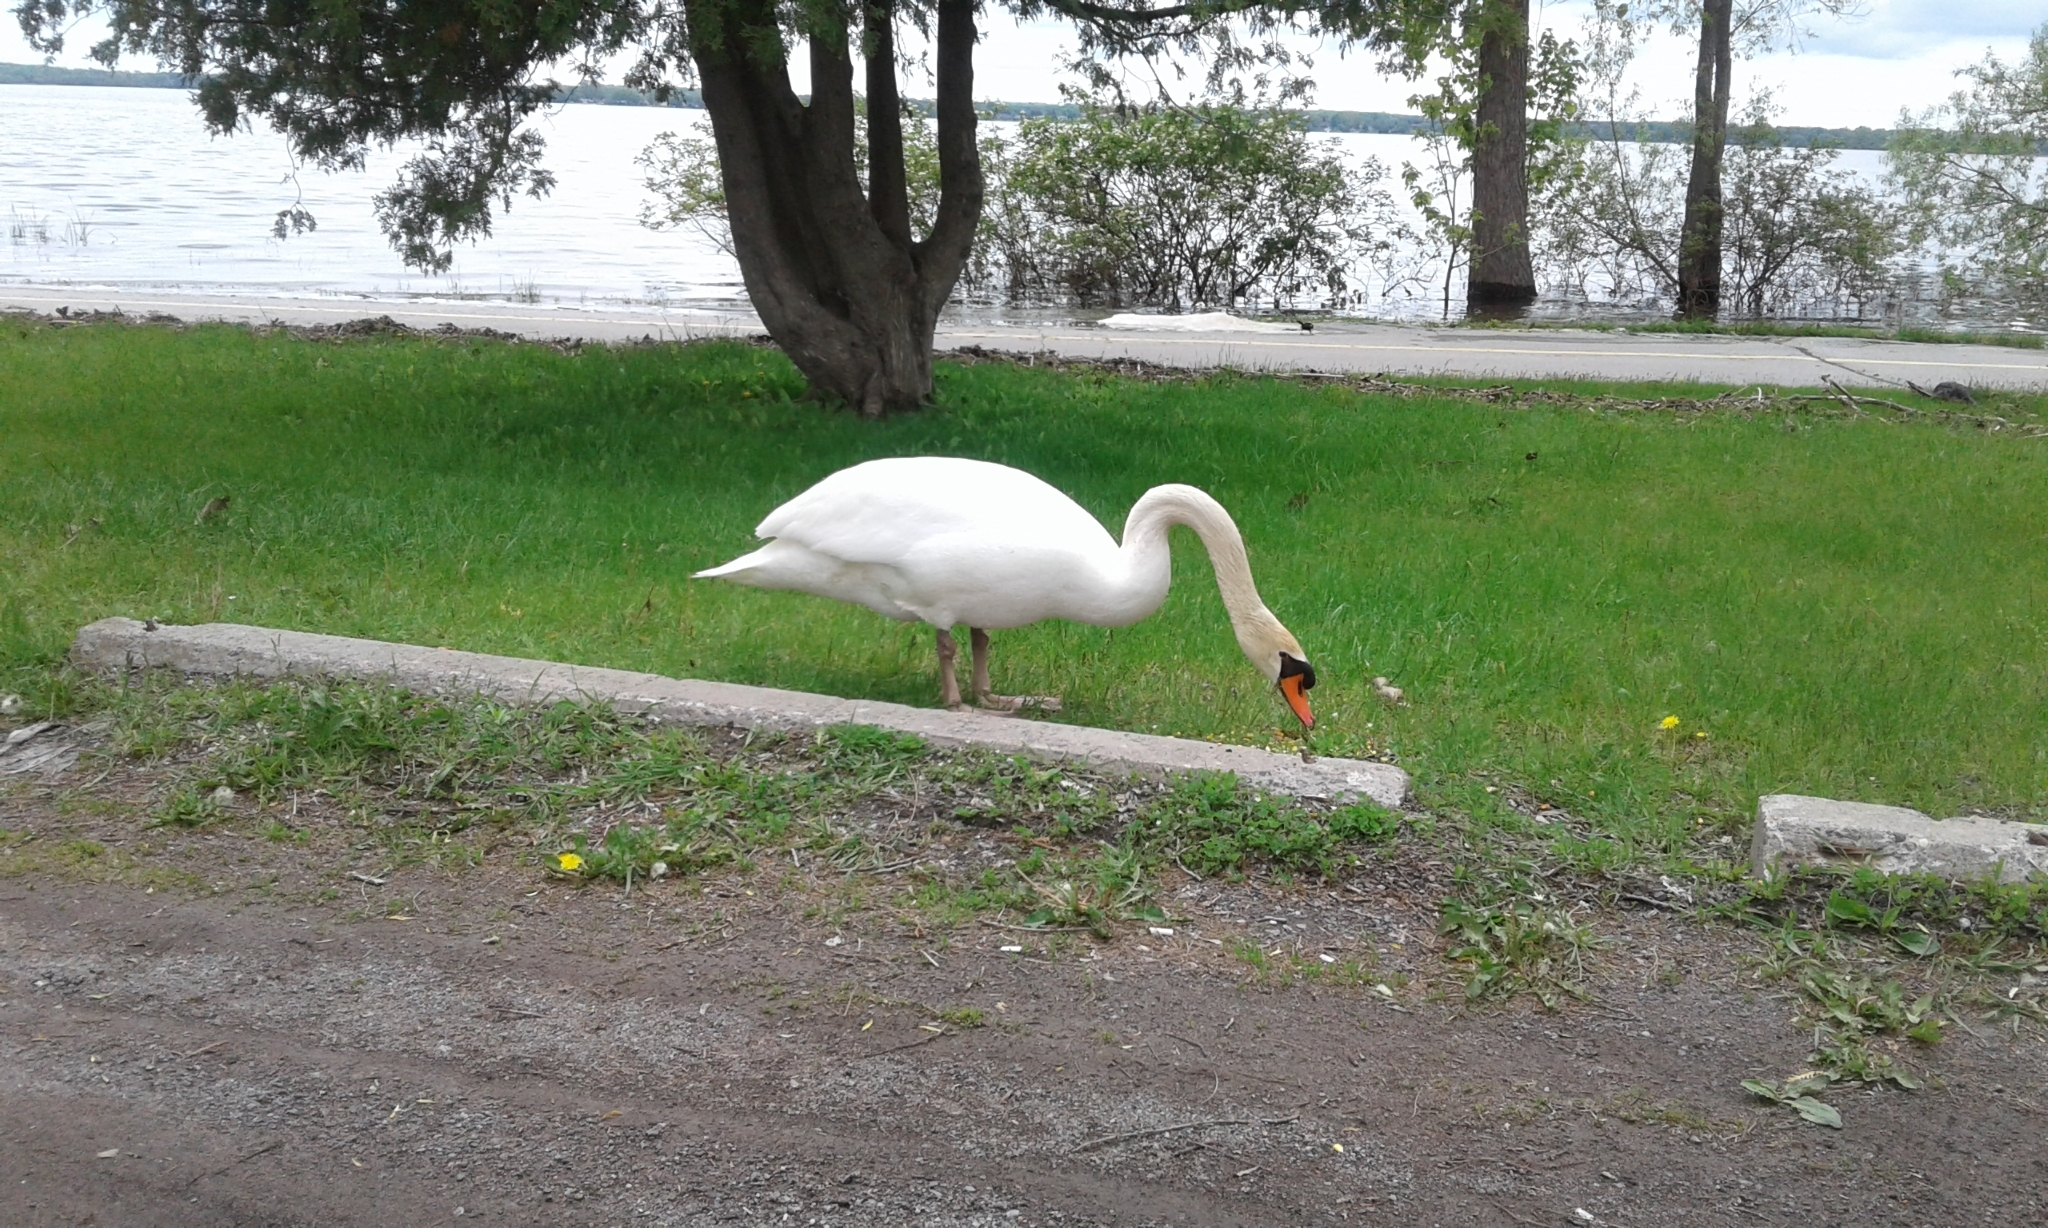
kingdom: Animalia
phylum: Chordata
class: Aves
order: Anseriformes
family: Anatidae
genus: Cygnus
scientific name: Cygnus olor
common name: Mute swan
